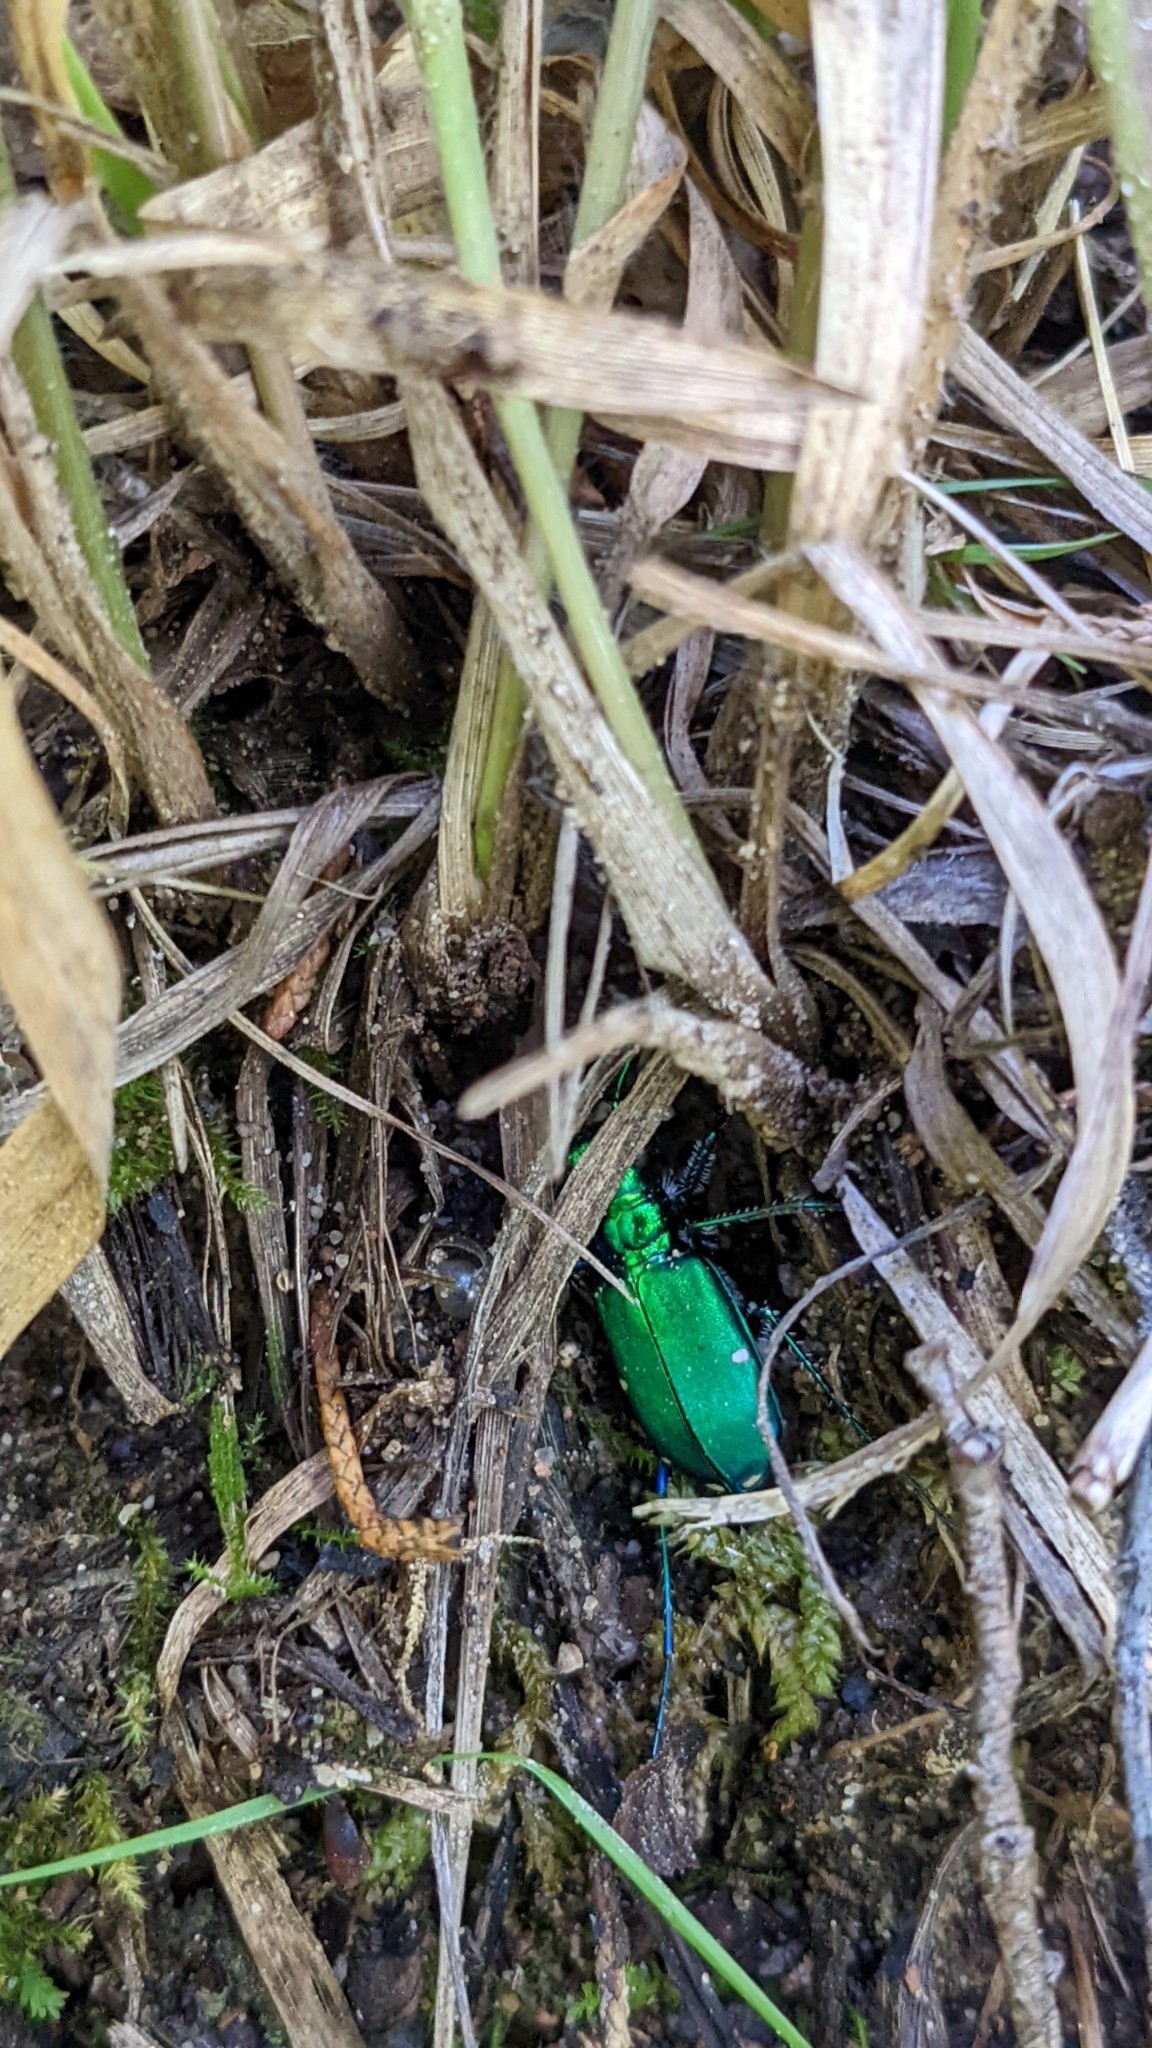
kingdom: Animalia
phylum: Arthropoda
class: Insecta
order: Coleoptera
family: Carabidae
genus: Cicindela
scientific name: Cicindela sexguttata
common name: Six-spotted tiger beetle
